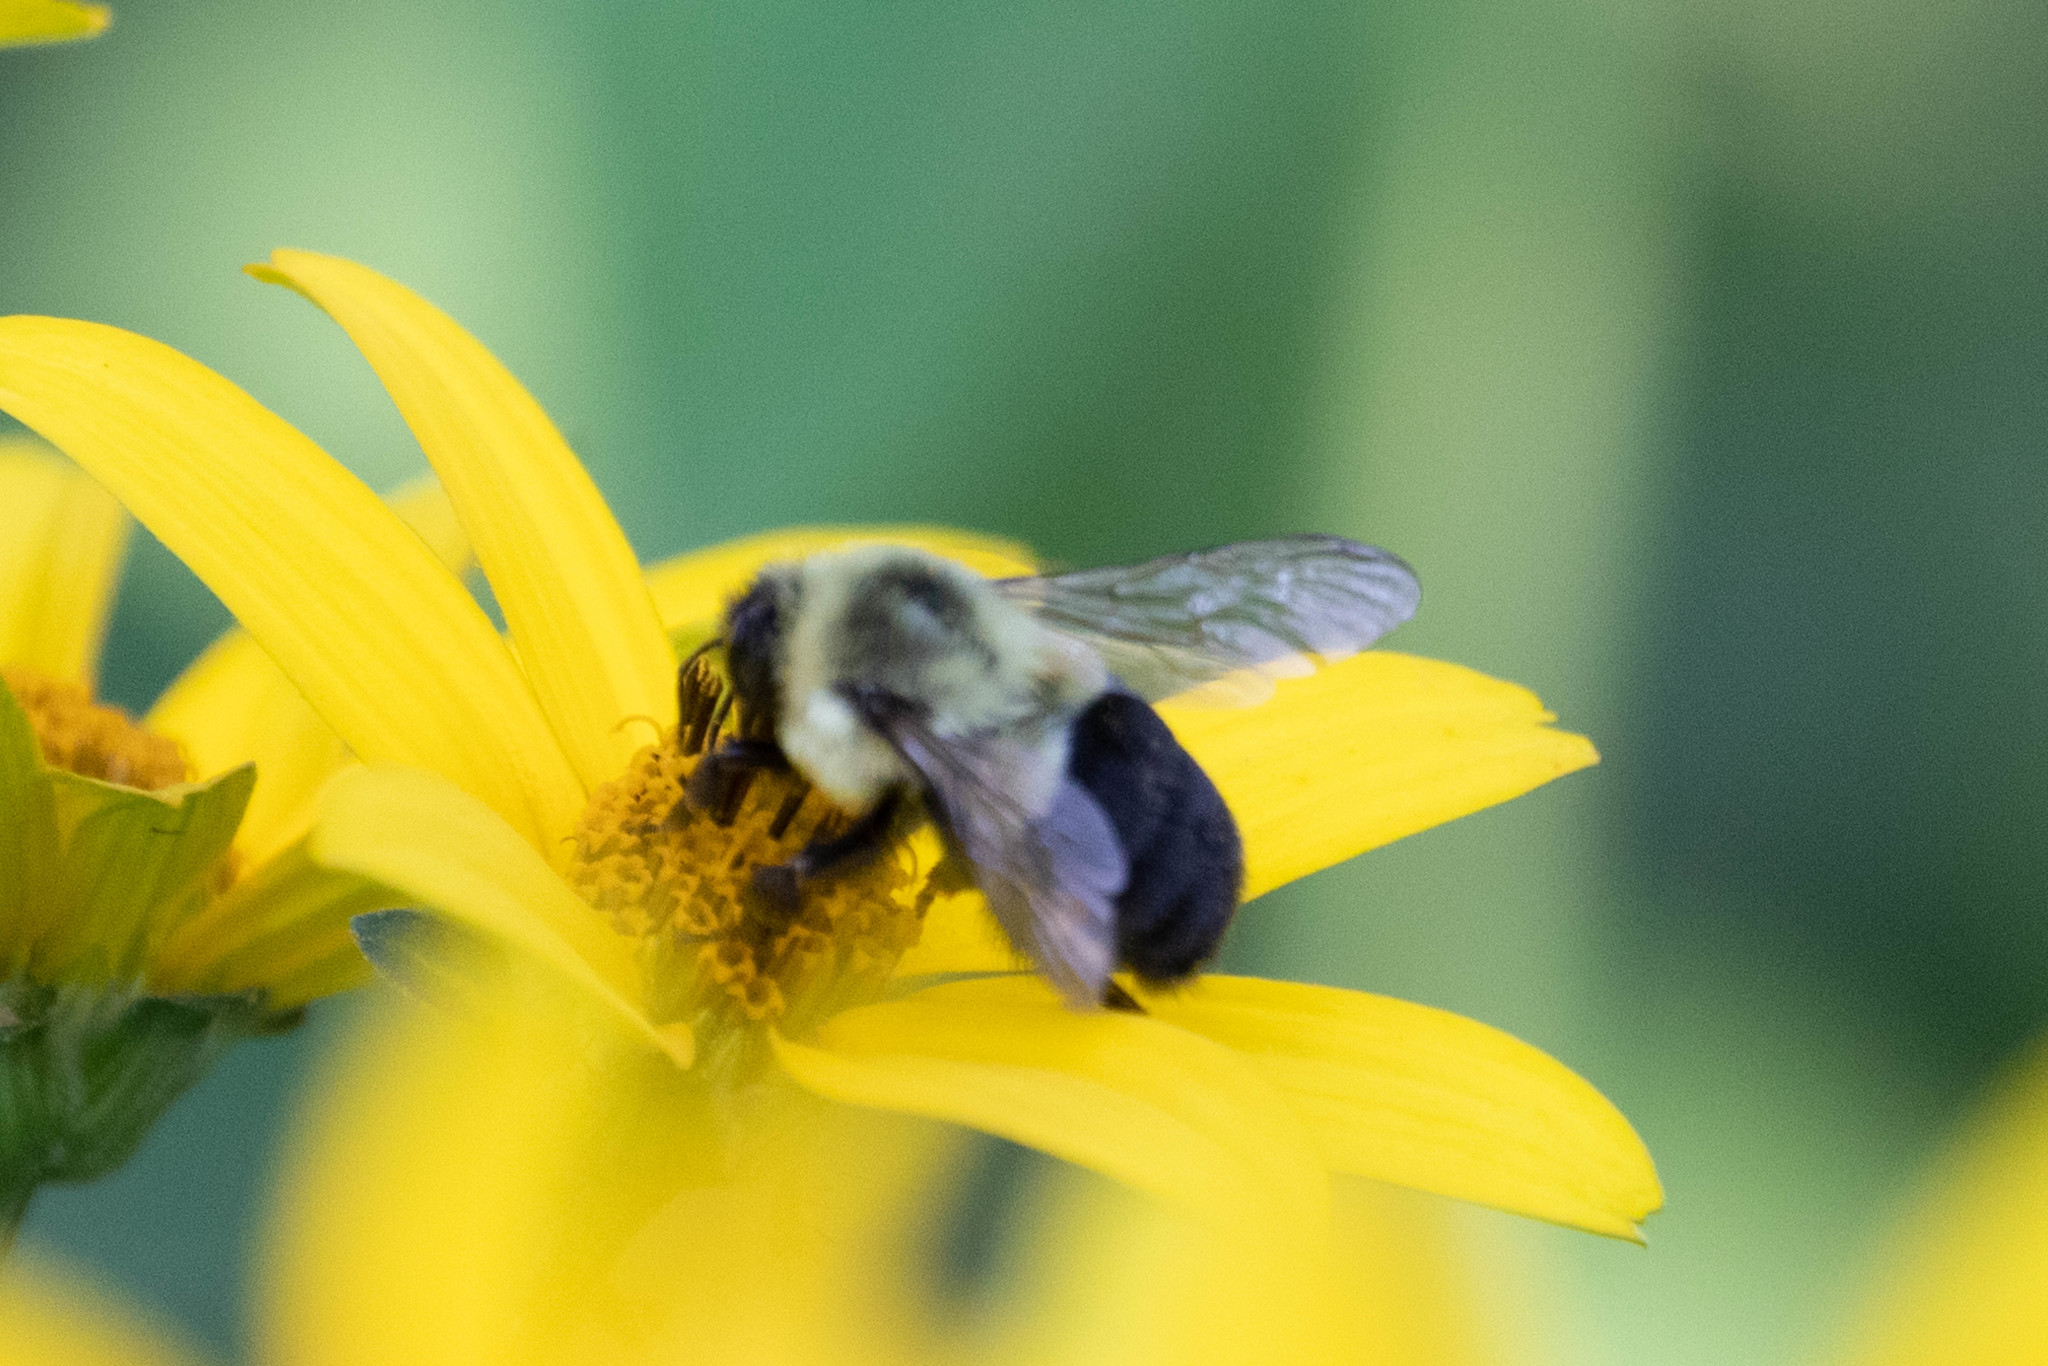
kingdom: Animalia
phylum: Arthropoda
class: Insecta
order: Hymenoptera
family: Apidae
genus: Bombus
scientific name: Bombus impatiens
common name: Common eastern bumble bee
